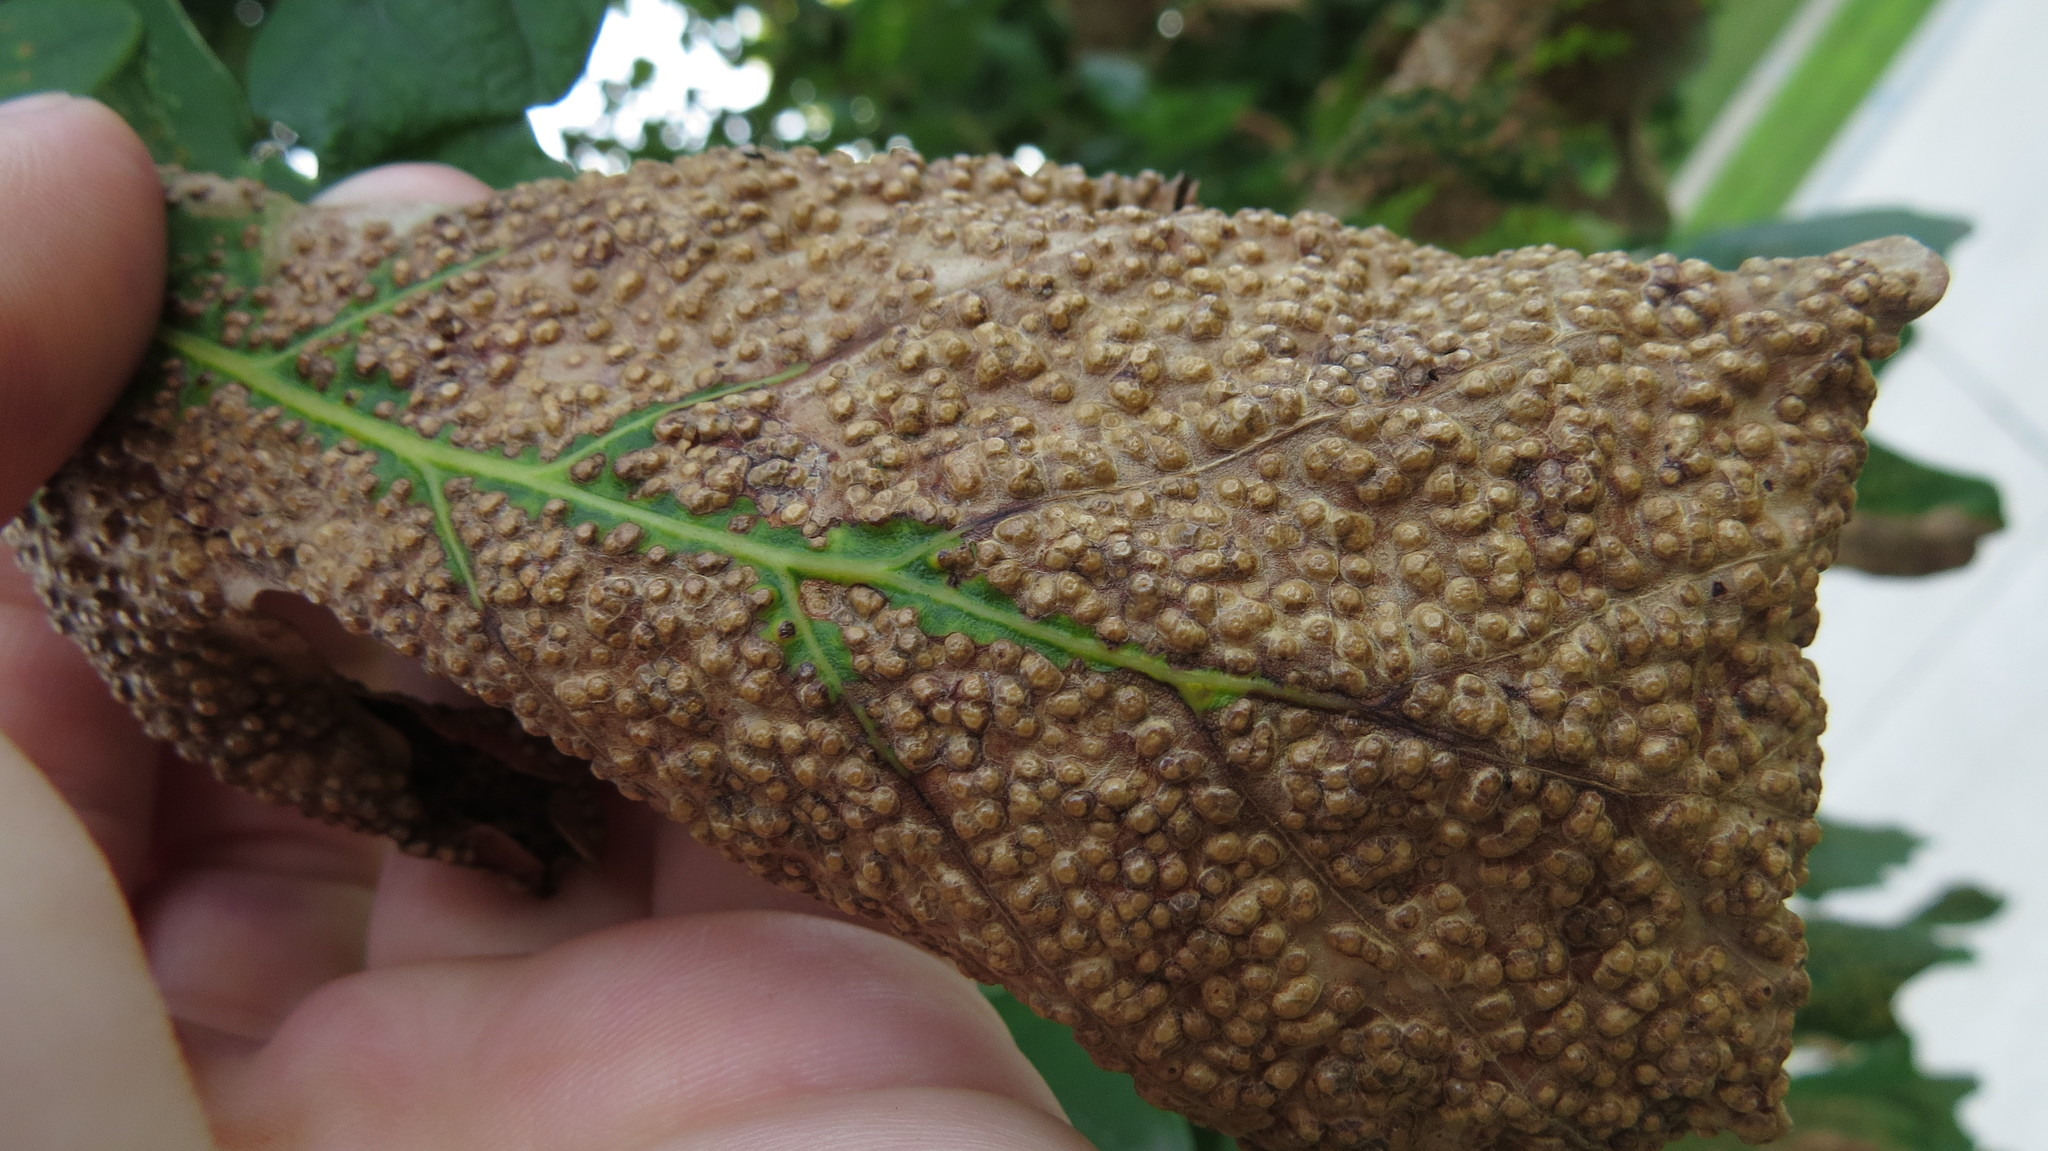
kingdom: Animalia
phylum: Arthropoda
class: Insecta
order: Hymenoptera
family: Cynipidae
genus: Neuroterus
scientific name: Neuroterus saltarius
